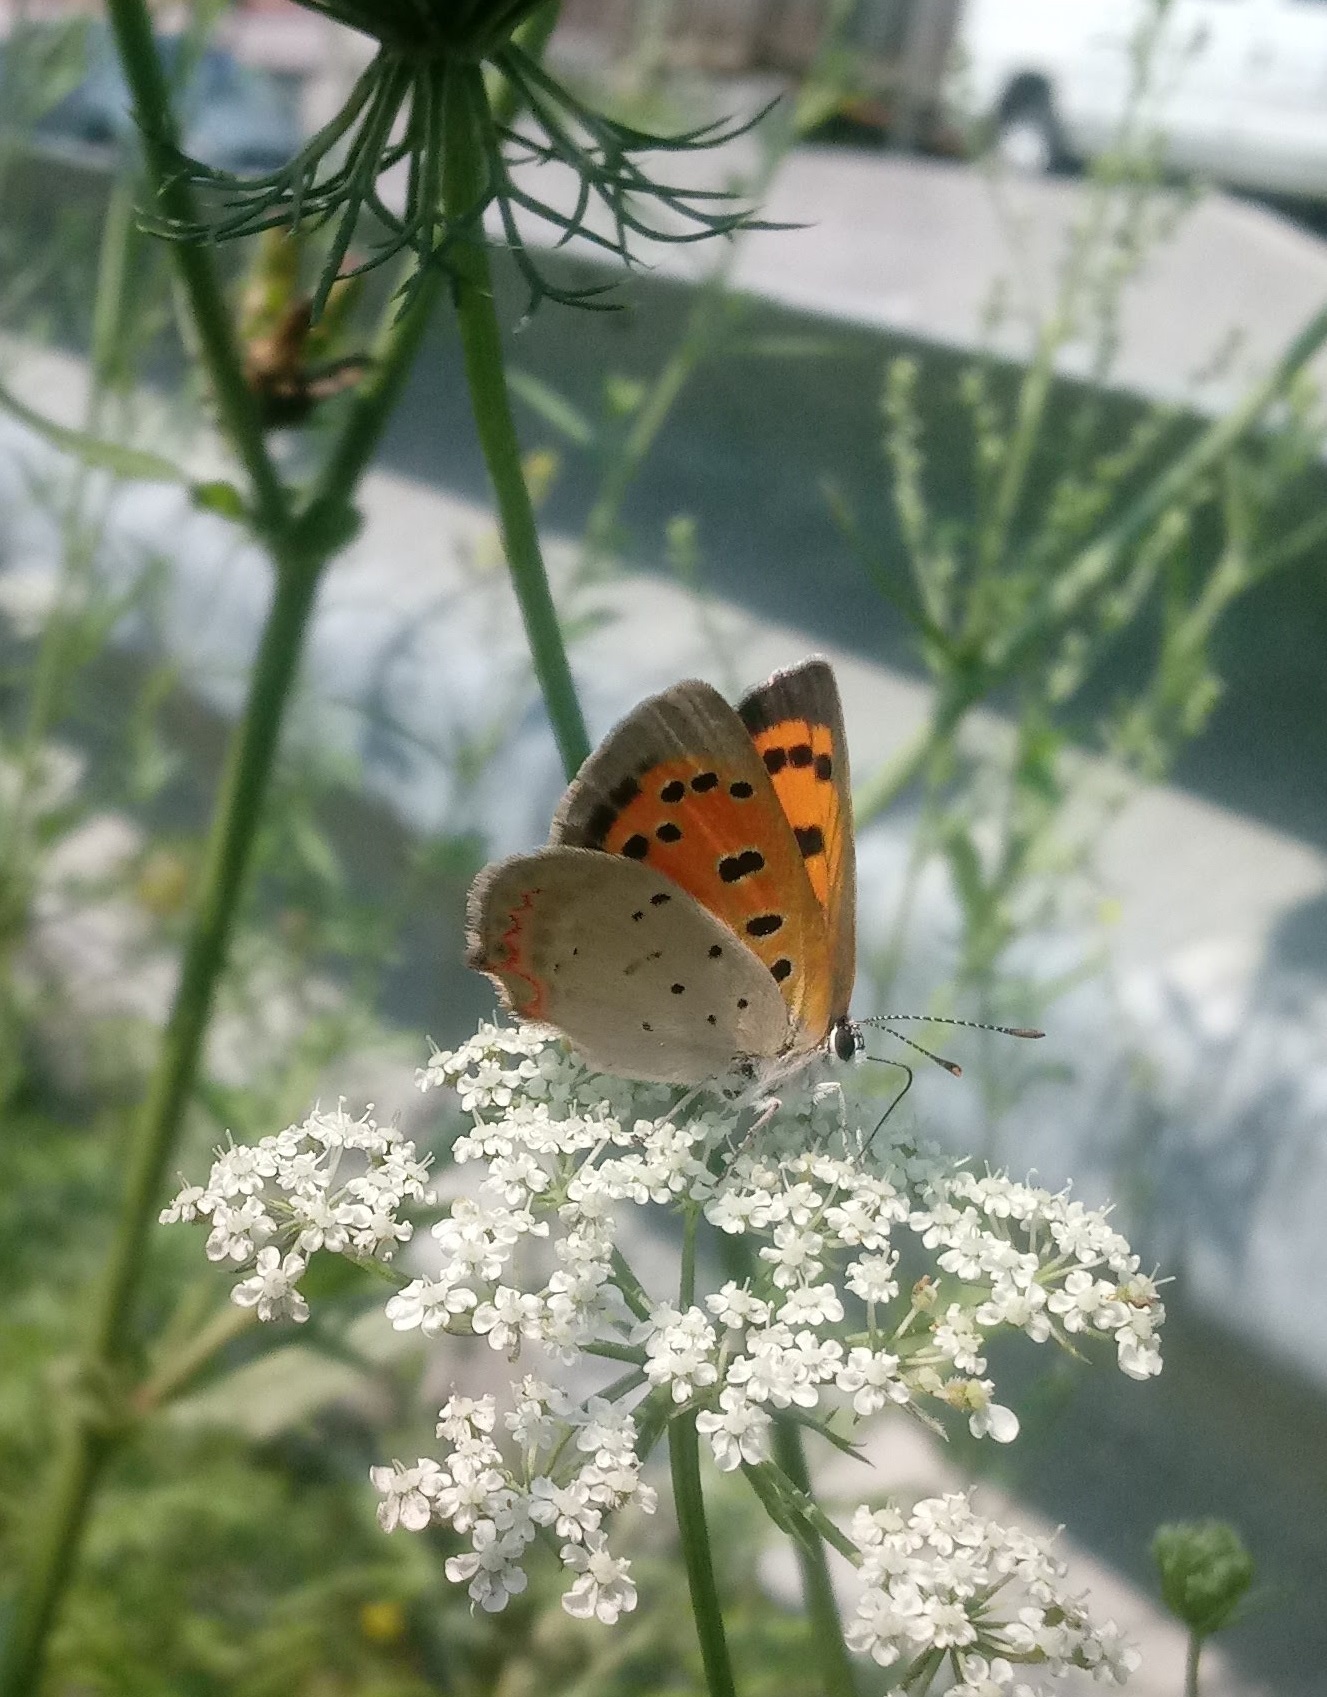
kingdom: Animalia
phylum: Arthropoda
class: Insecta
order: Lepidoptera
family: Lycaenidae
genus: Lycaena
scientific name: Lycaena hypophlaeas
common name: American copper
